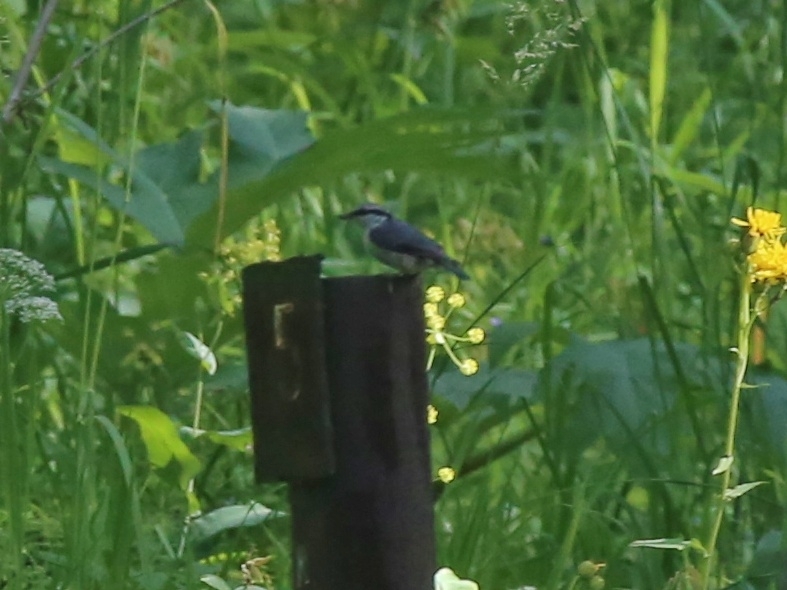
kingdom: Animalia
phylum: Chordata
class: Aves
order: Passeriformes
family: Sittidae
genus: Sitta
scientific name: Sitta europaea
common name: Eurasian nuthatch
